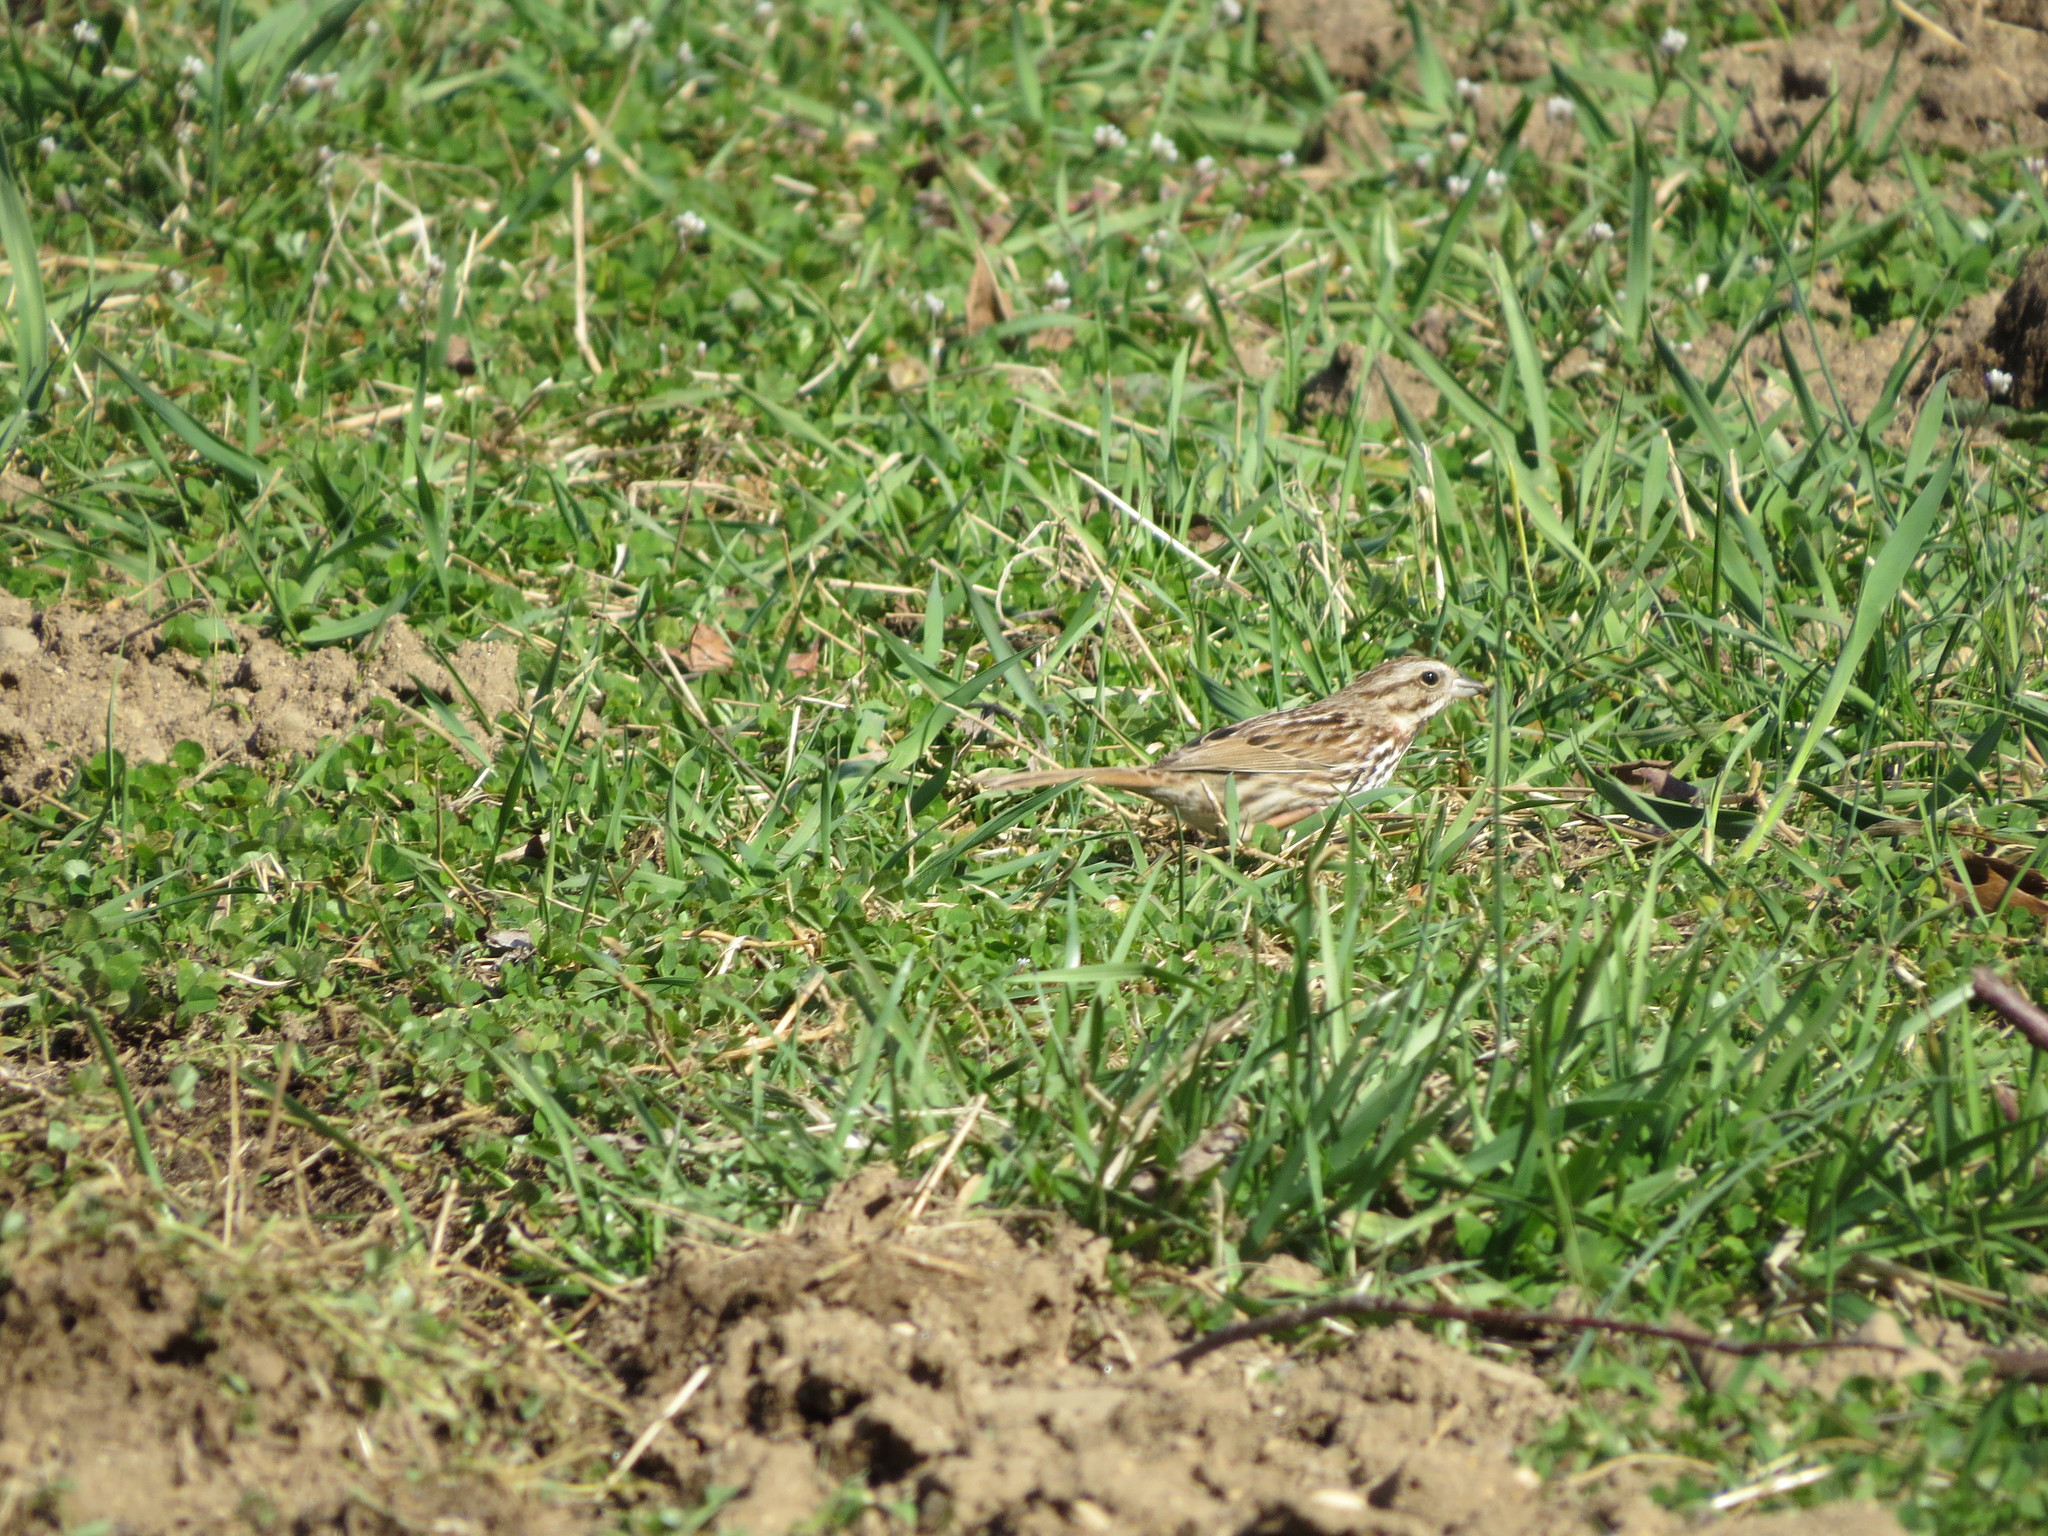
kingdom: Animalia
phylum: Chordata
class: Aves
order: Passeriformes
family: Passerellidae
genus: Melospiza
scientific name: Melospiza melodia
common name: Song sparrow
